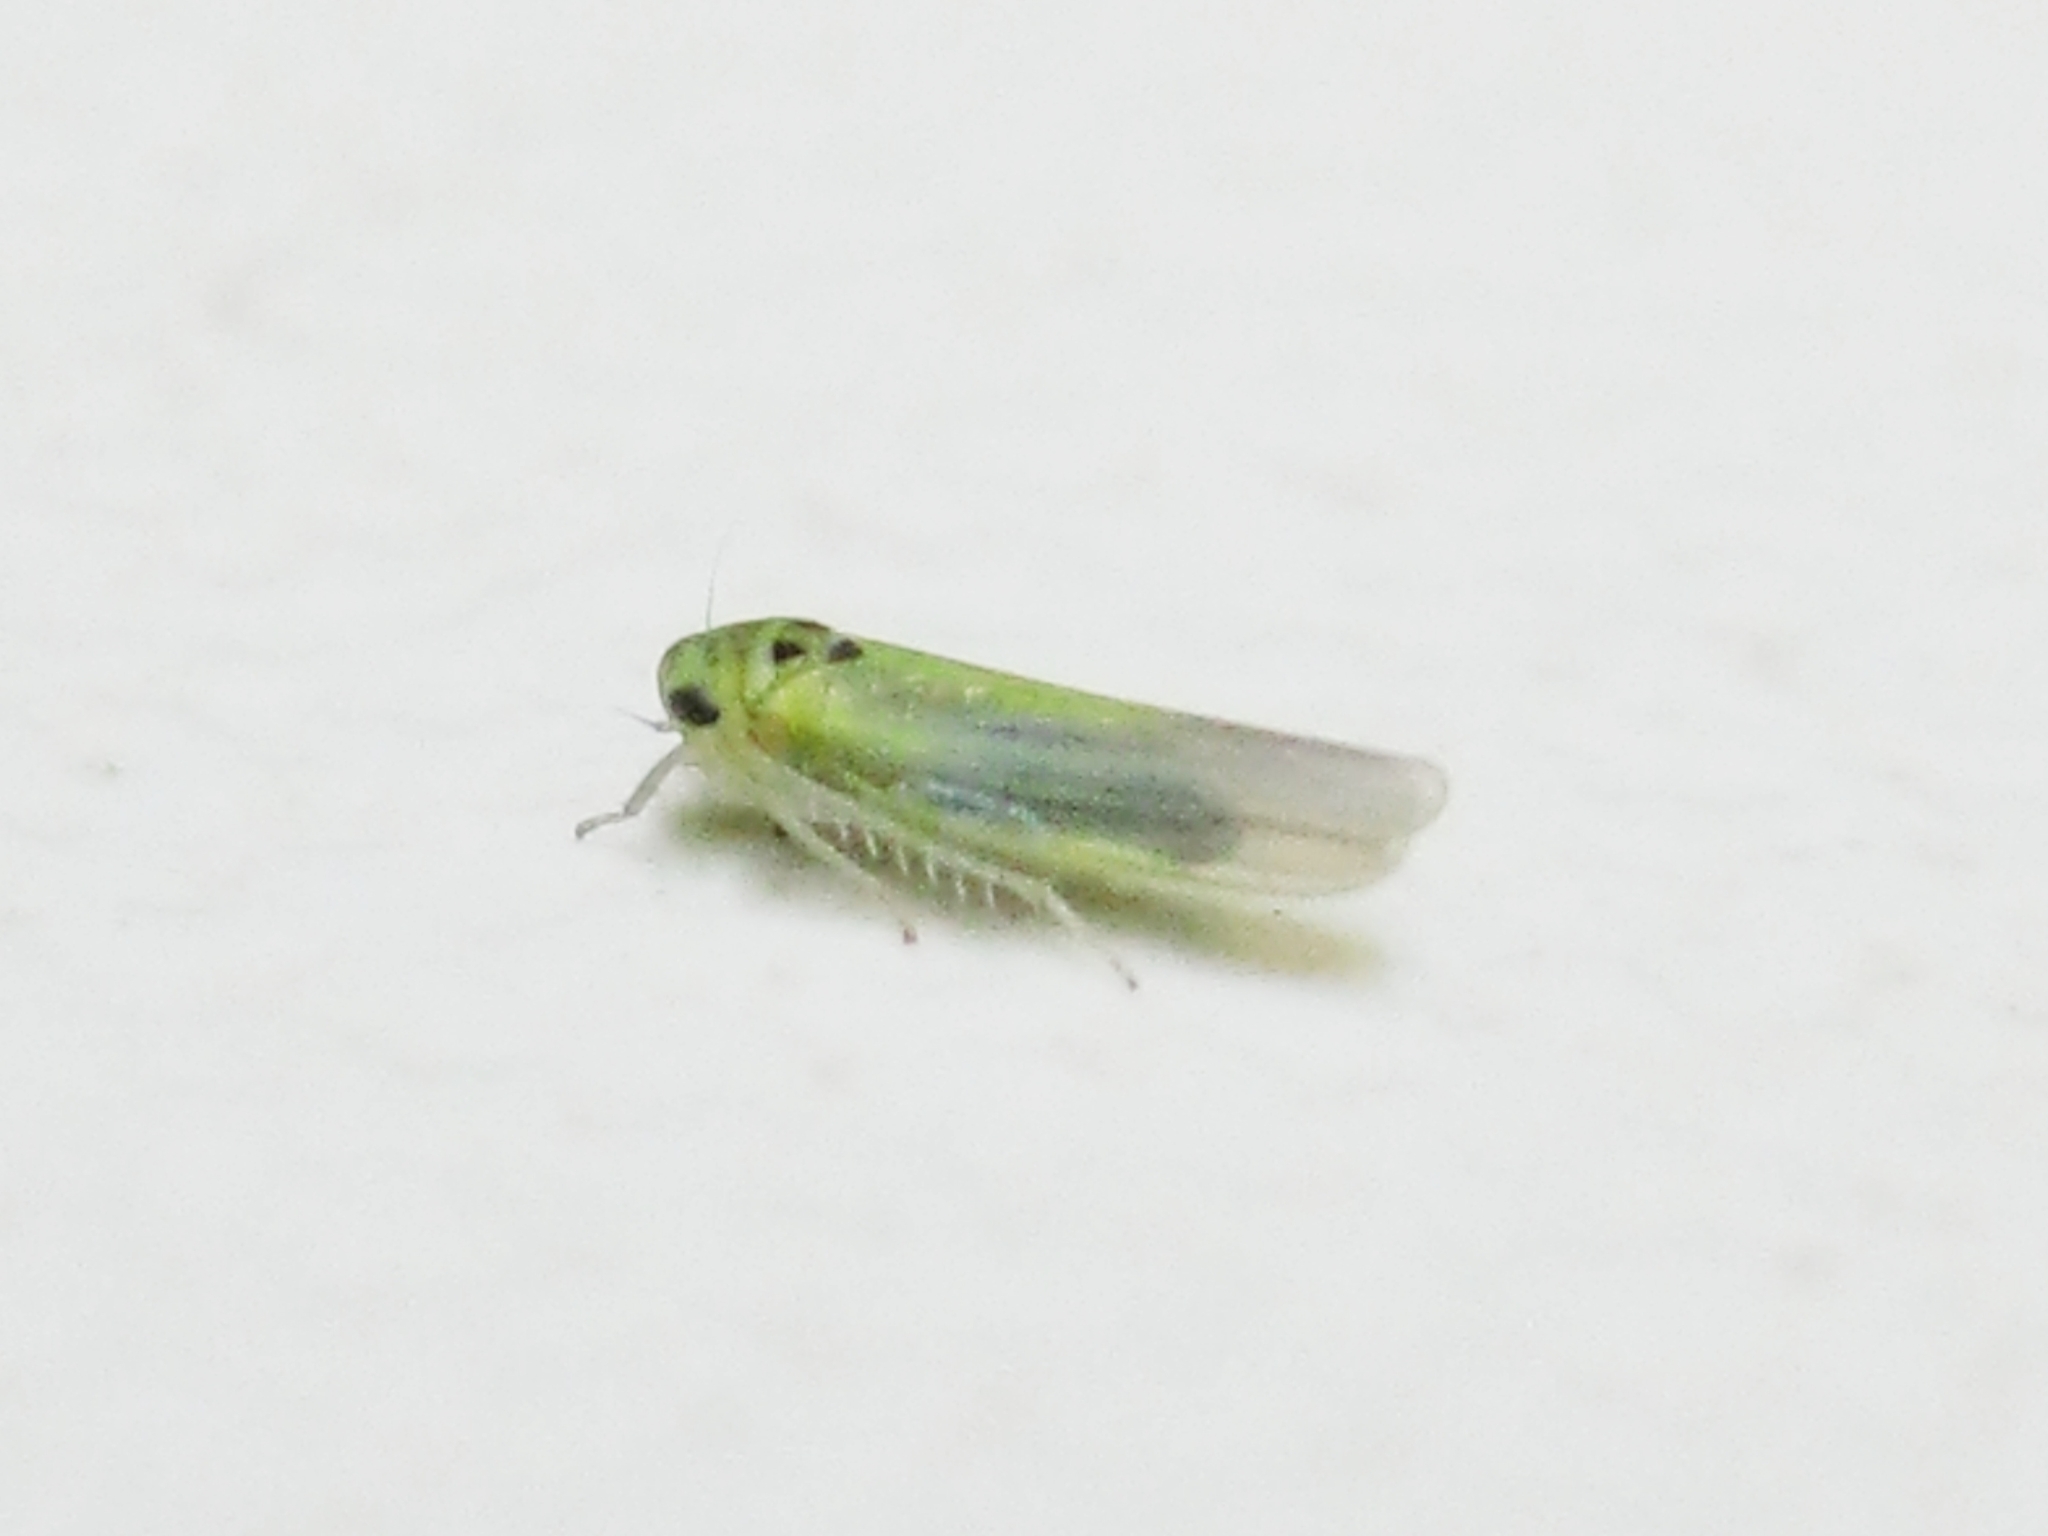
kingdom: Animalia
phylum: Arthropoda
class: Insecta
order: Hemiptera
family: Cicadellidae
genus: Macrosteles
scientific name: Macrosteles
